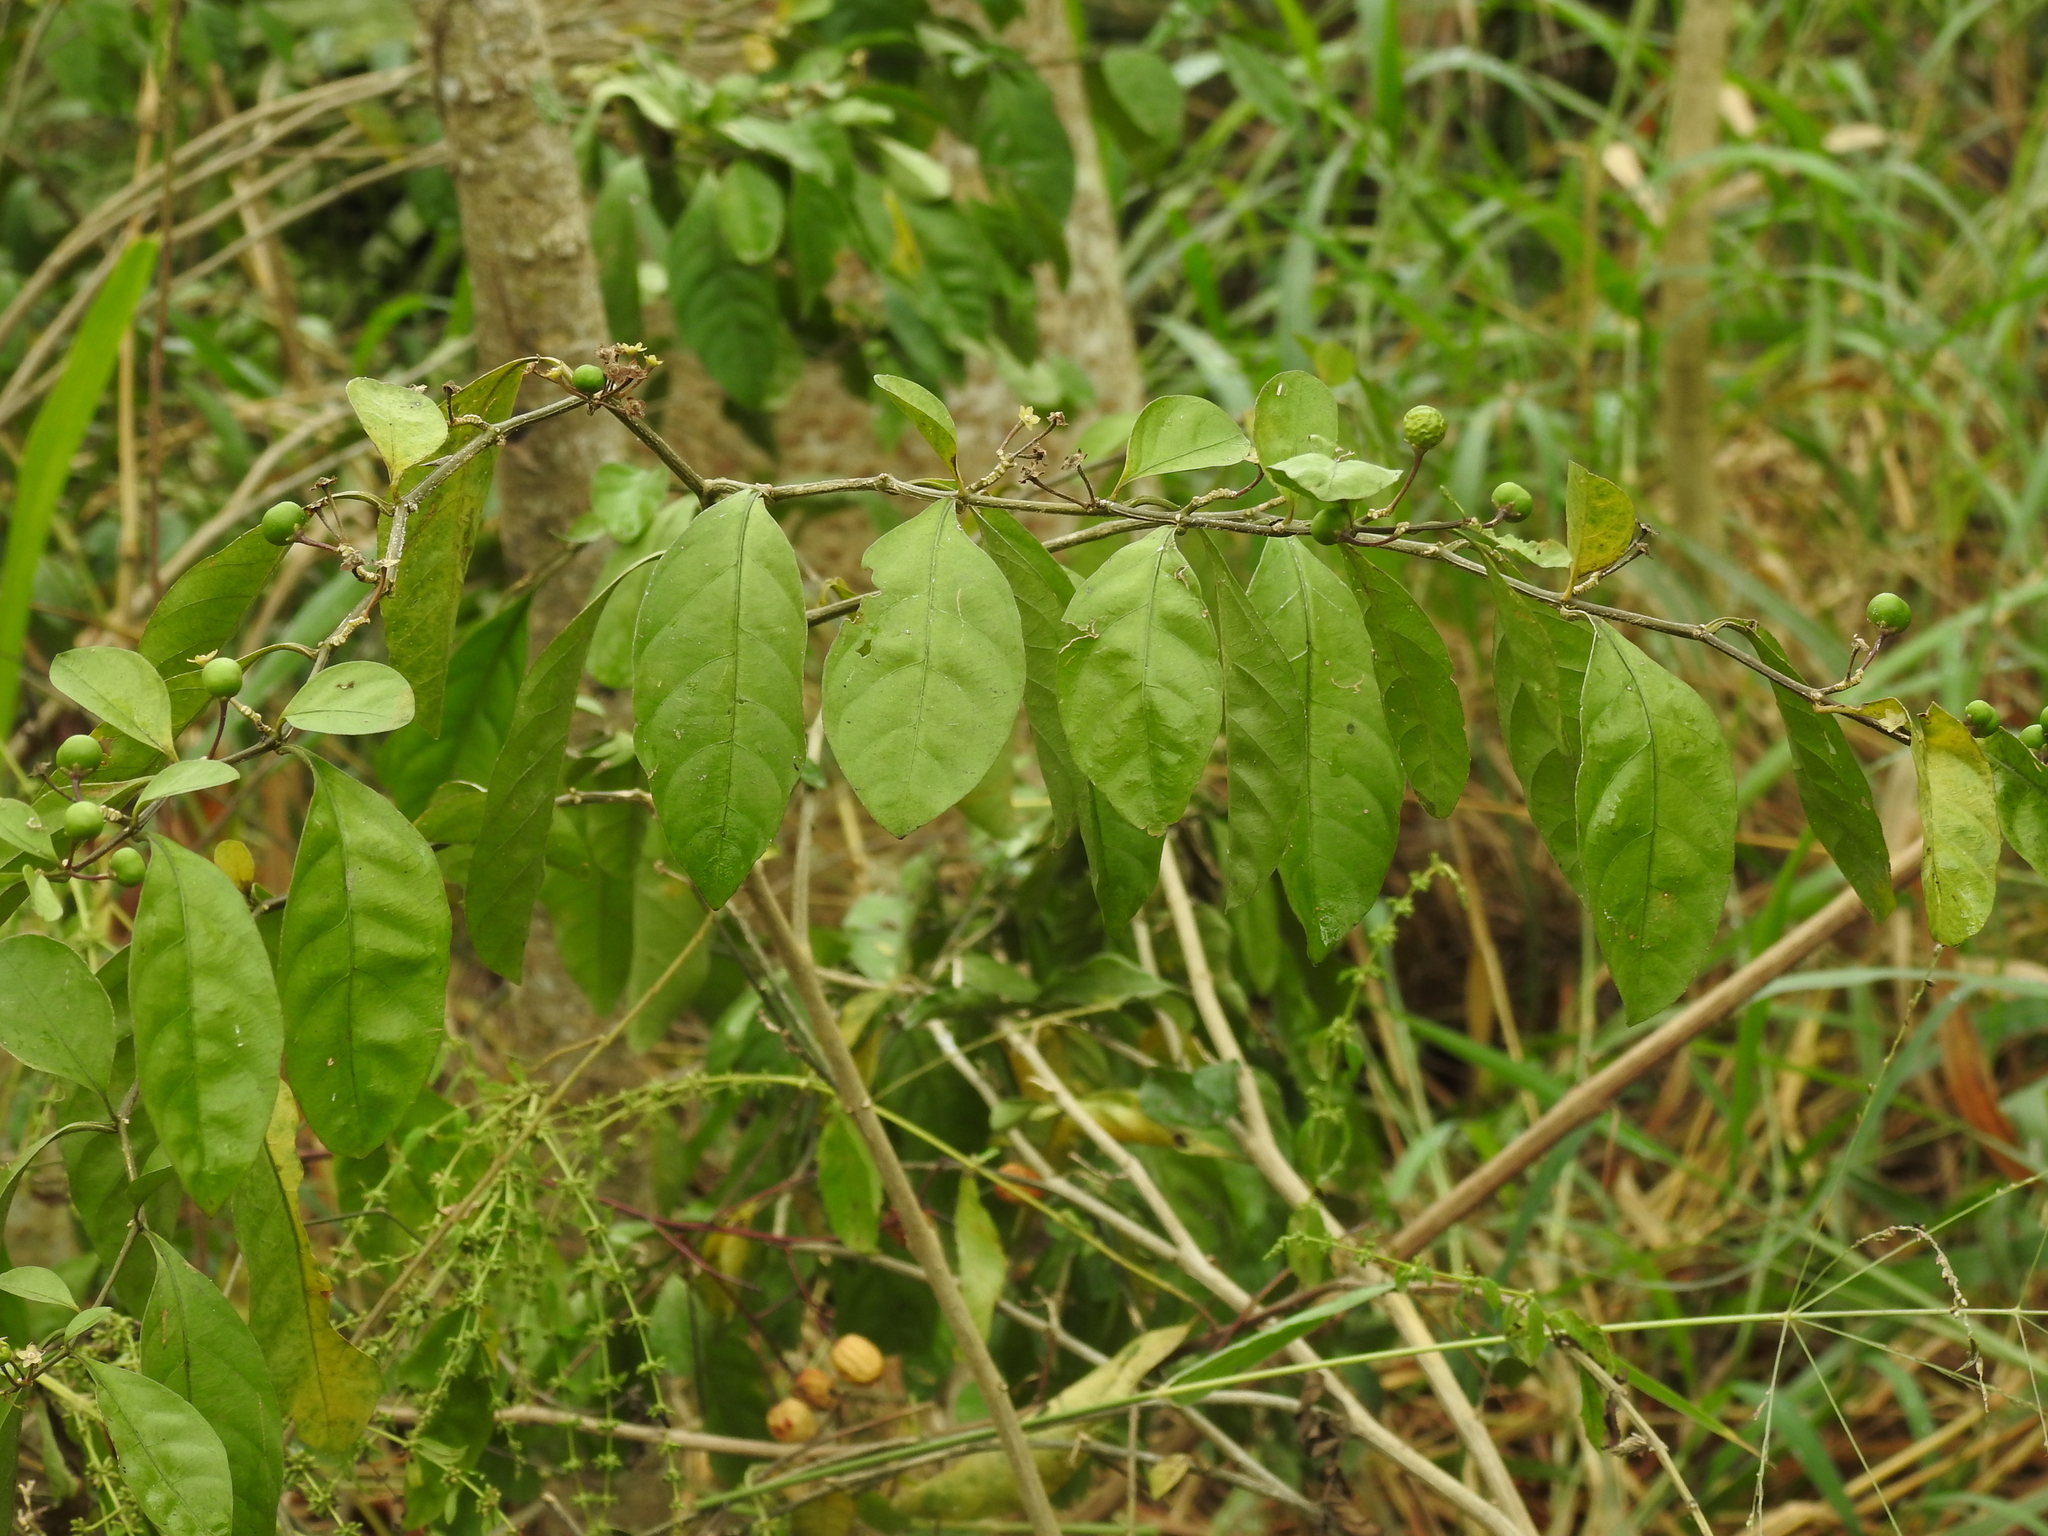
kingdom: Plantae
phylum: Tracheophyta
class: Magnoliopsida
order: Solanales
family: Solanaceae
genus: Solanum
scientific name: Solanum diphyllum
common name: Twoleaf nightshade
